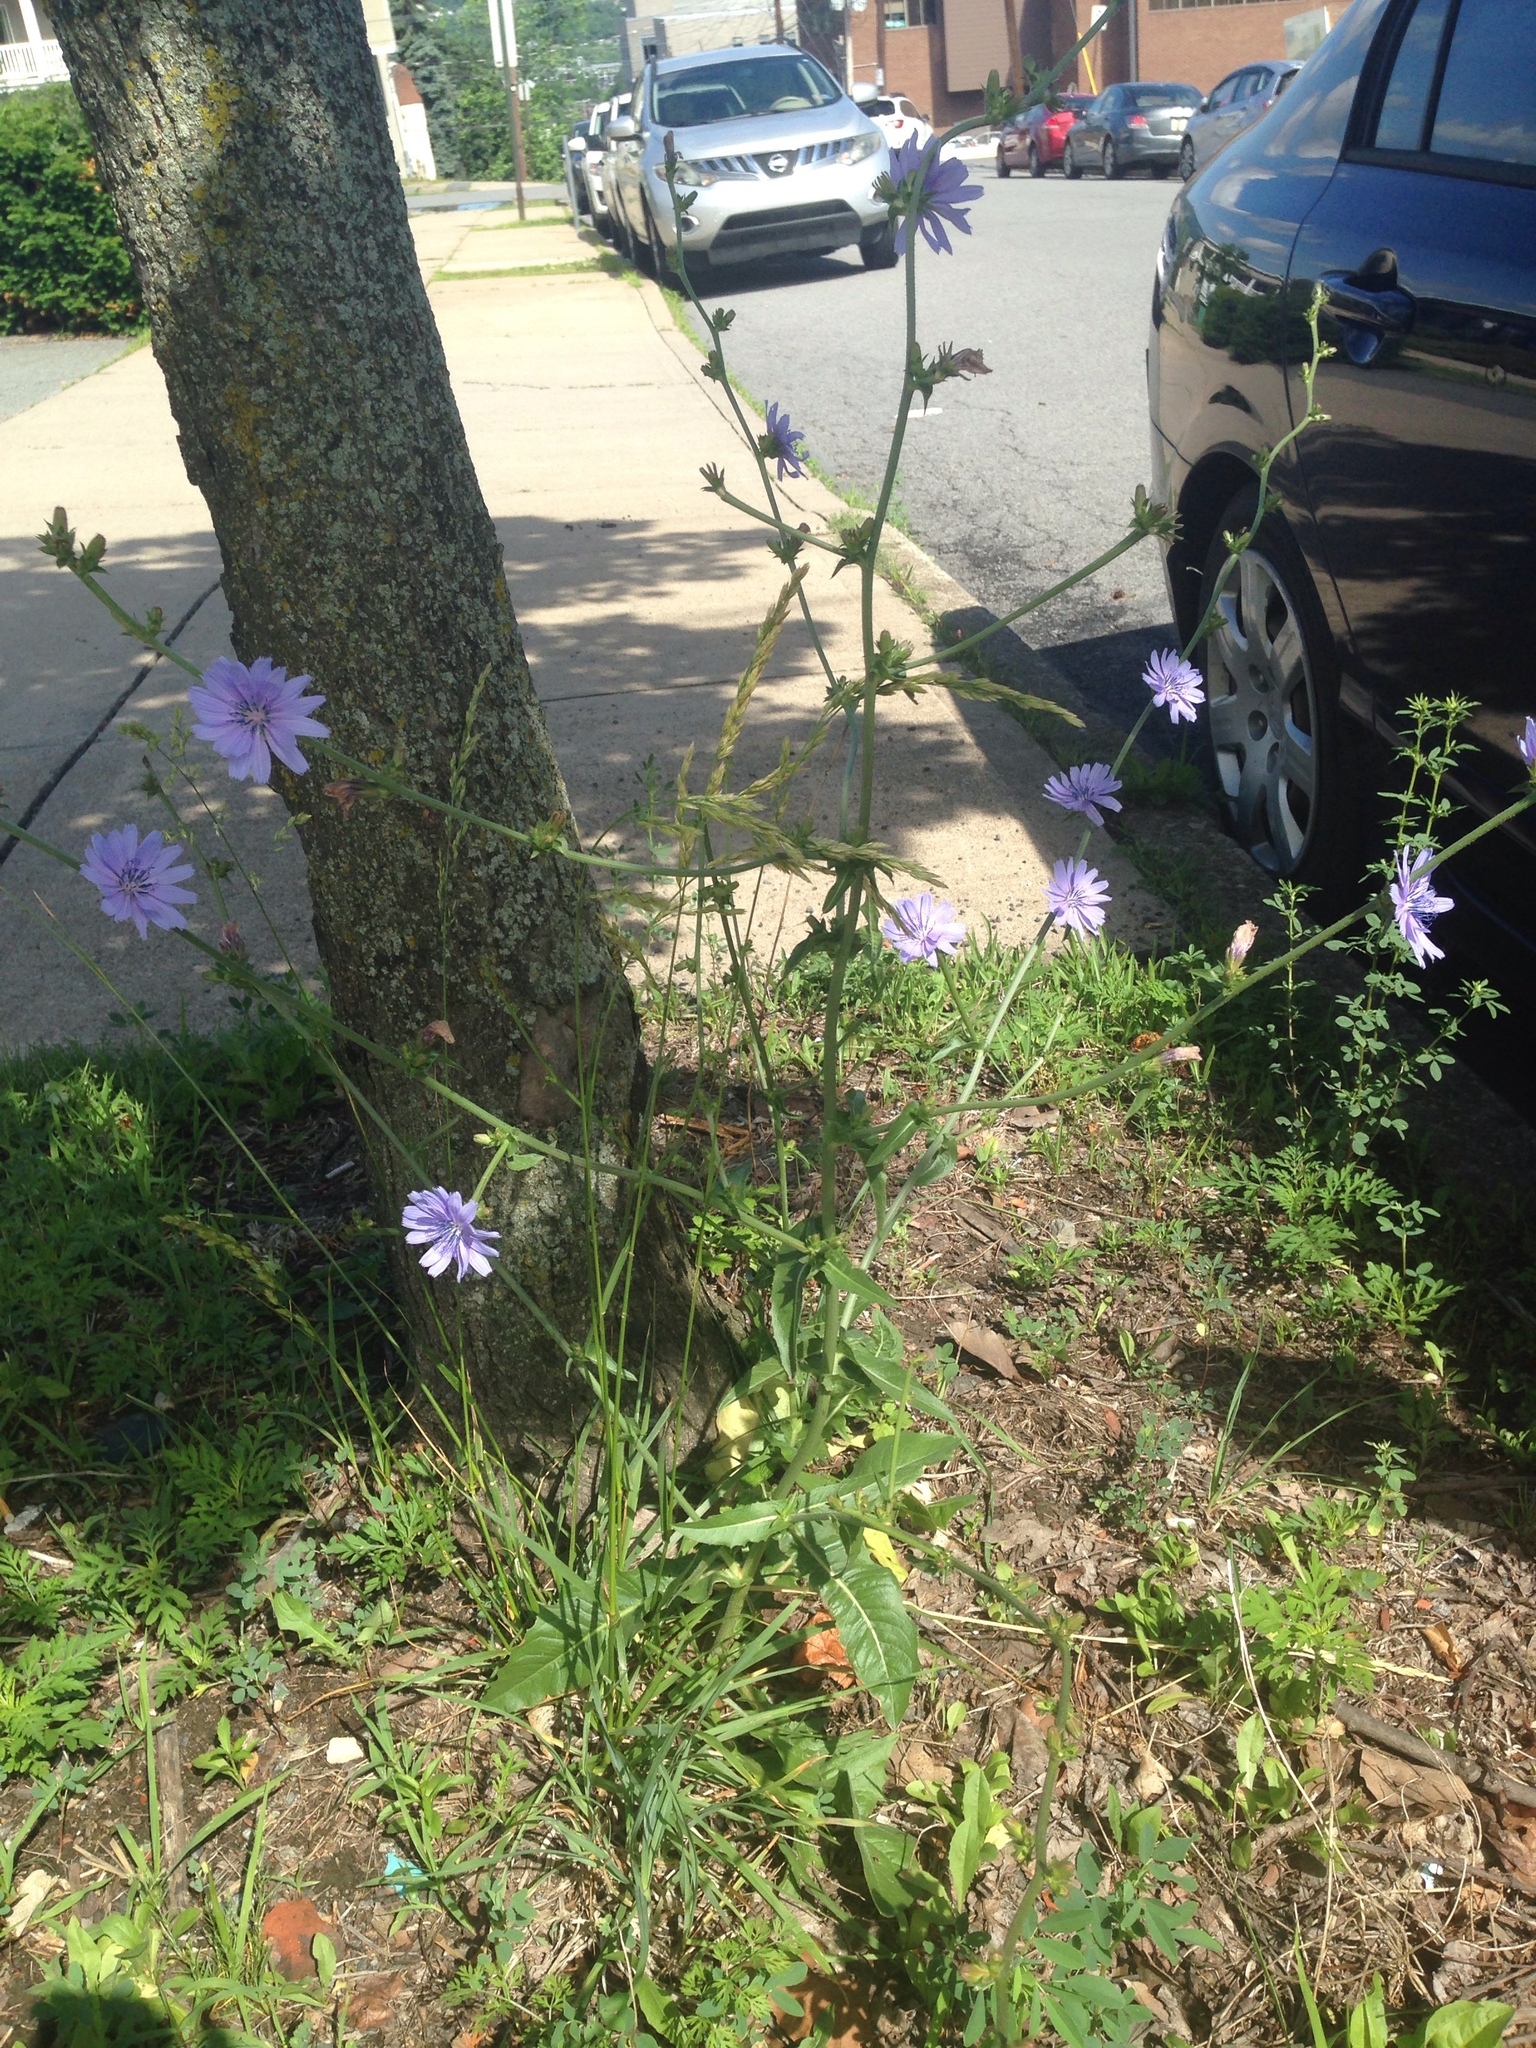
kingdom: Plantae
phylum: Tracheophyta
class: Magnoliopsida
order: Asterales
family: Asteraceae
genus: Cichorium
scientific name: Cichorium intybus
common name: Chicory
